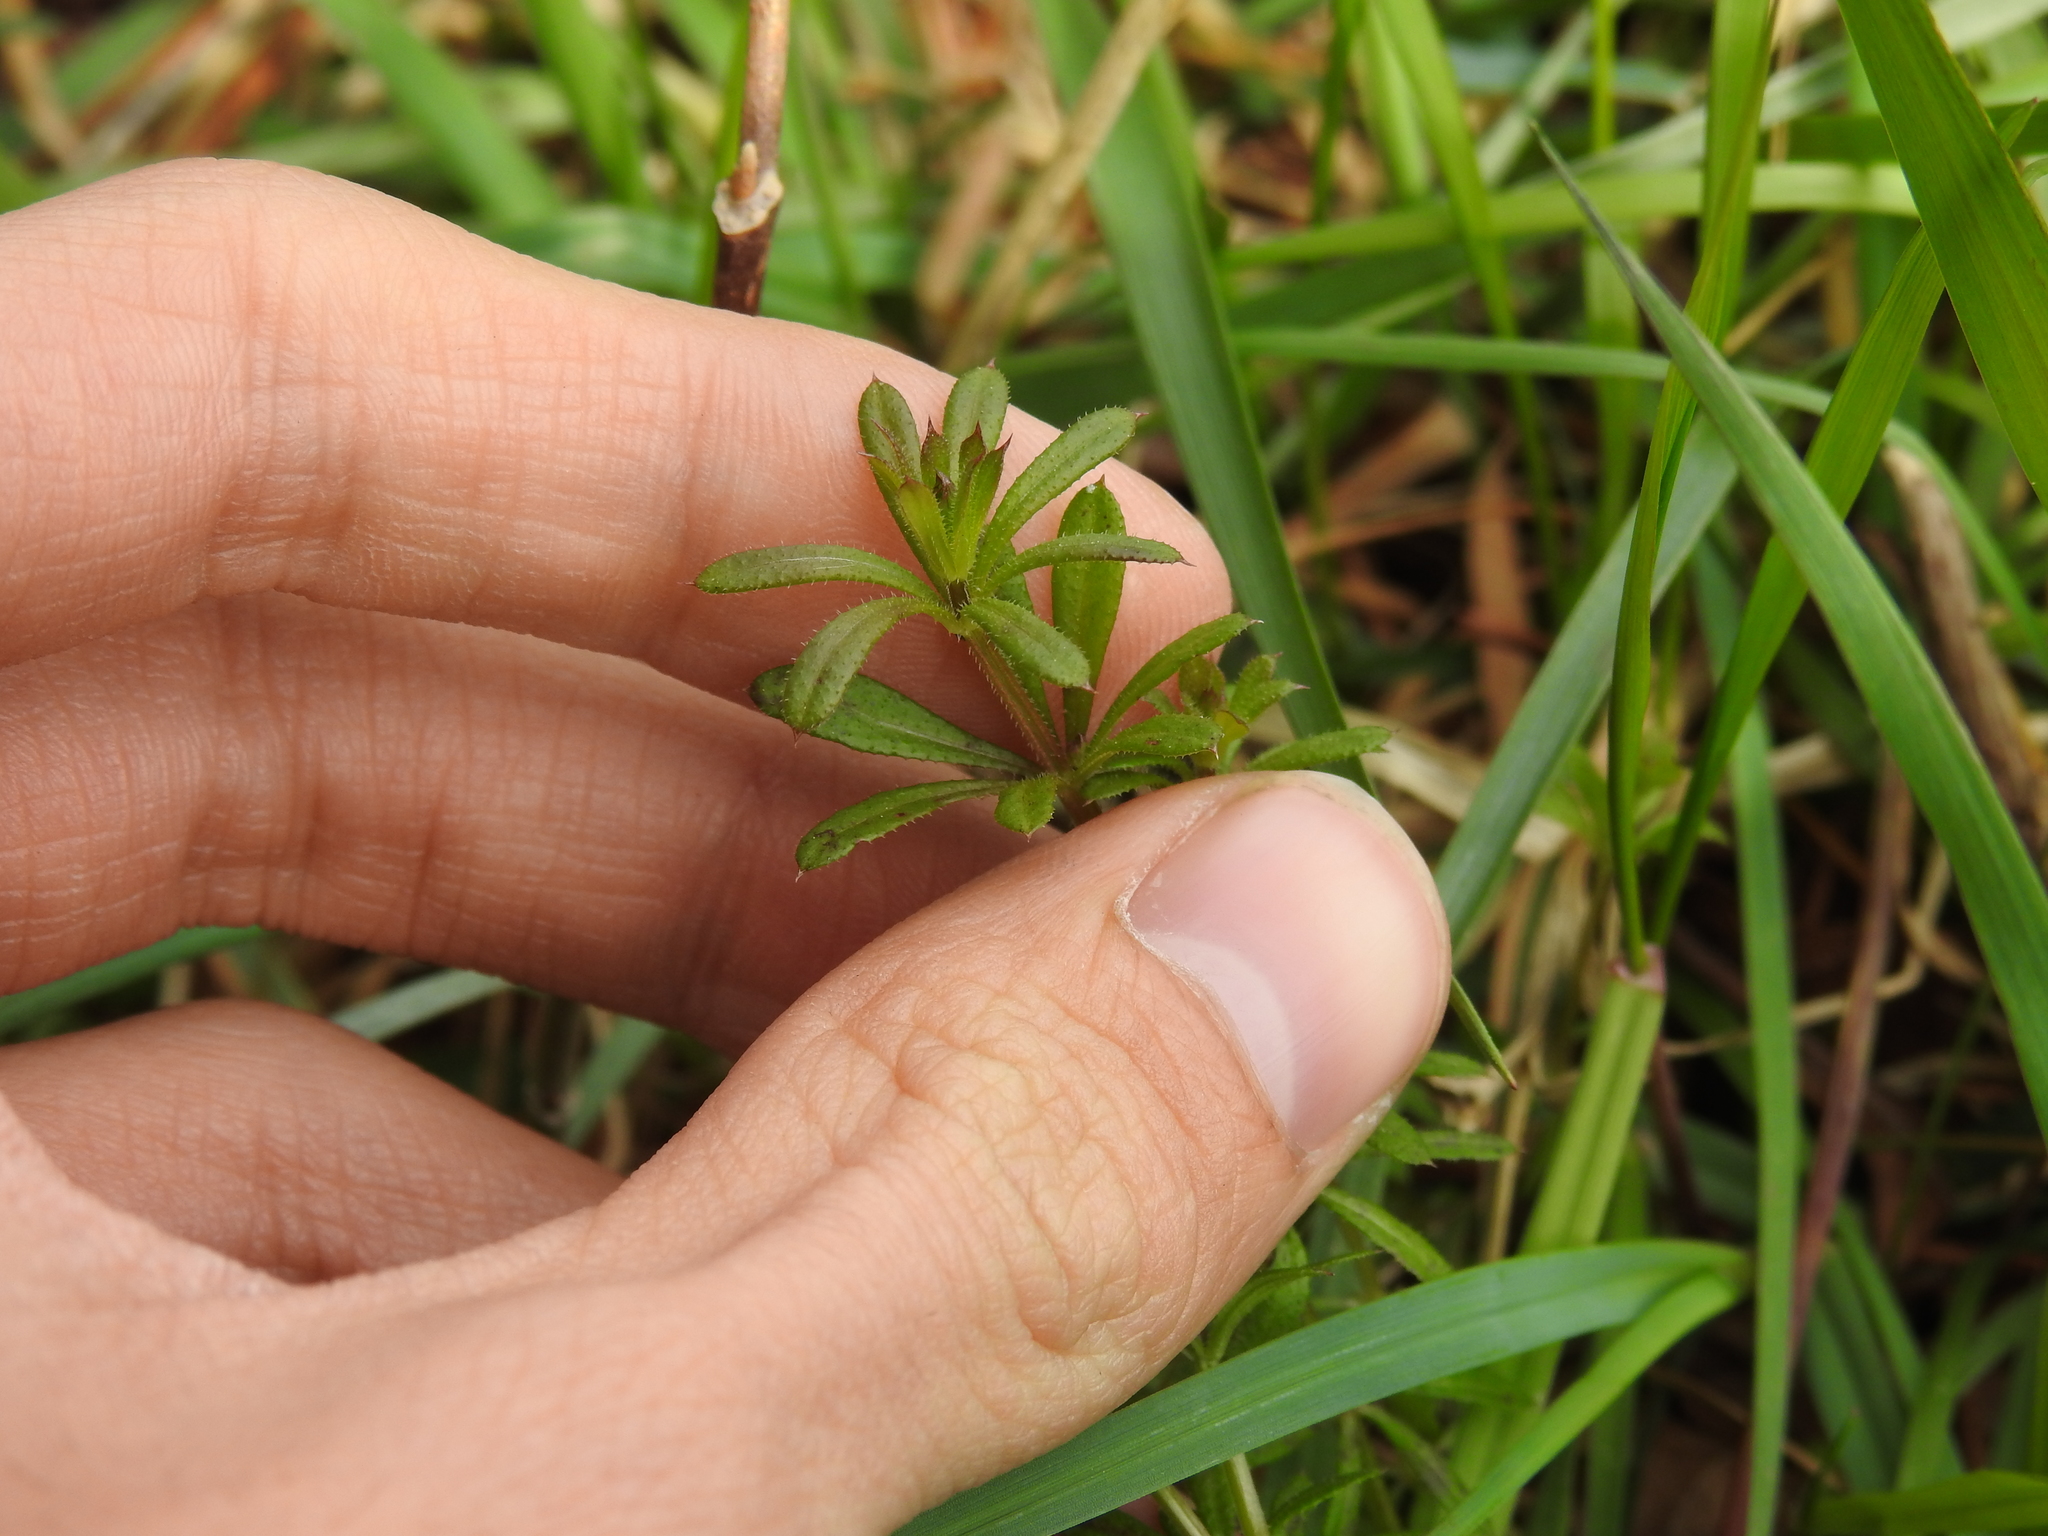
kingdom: Plantae
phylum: Tracheophyta
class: Magnoliopsida
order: Gentianales
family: Rubiaceae
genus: Galium
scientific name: Galium aparine
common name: Cleavers
